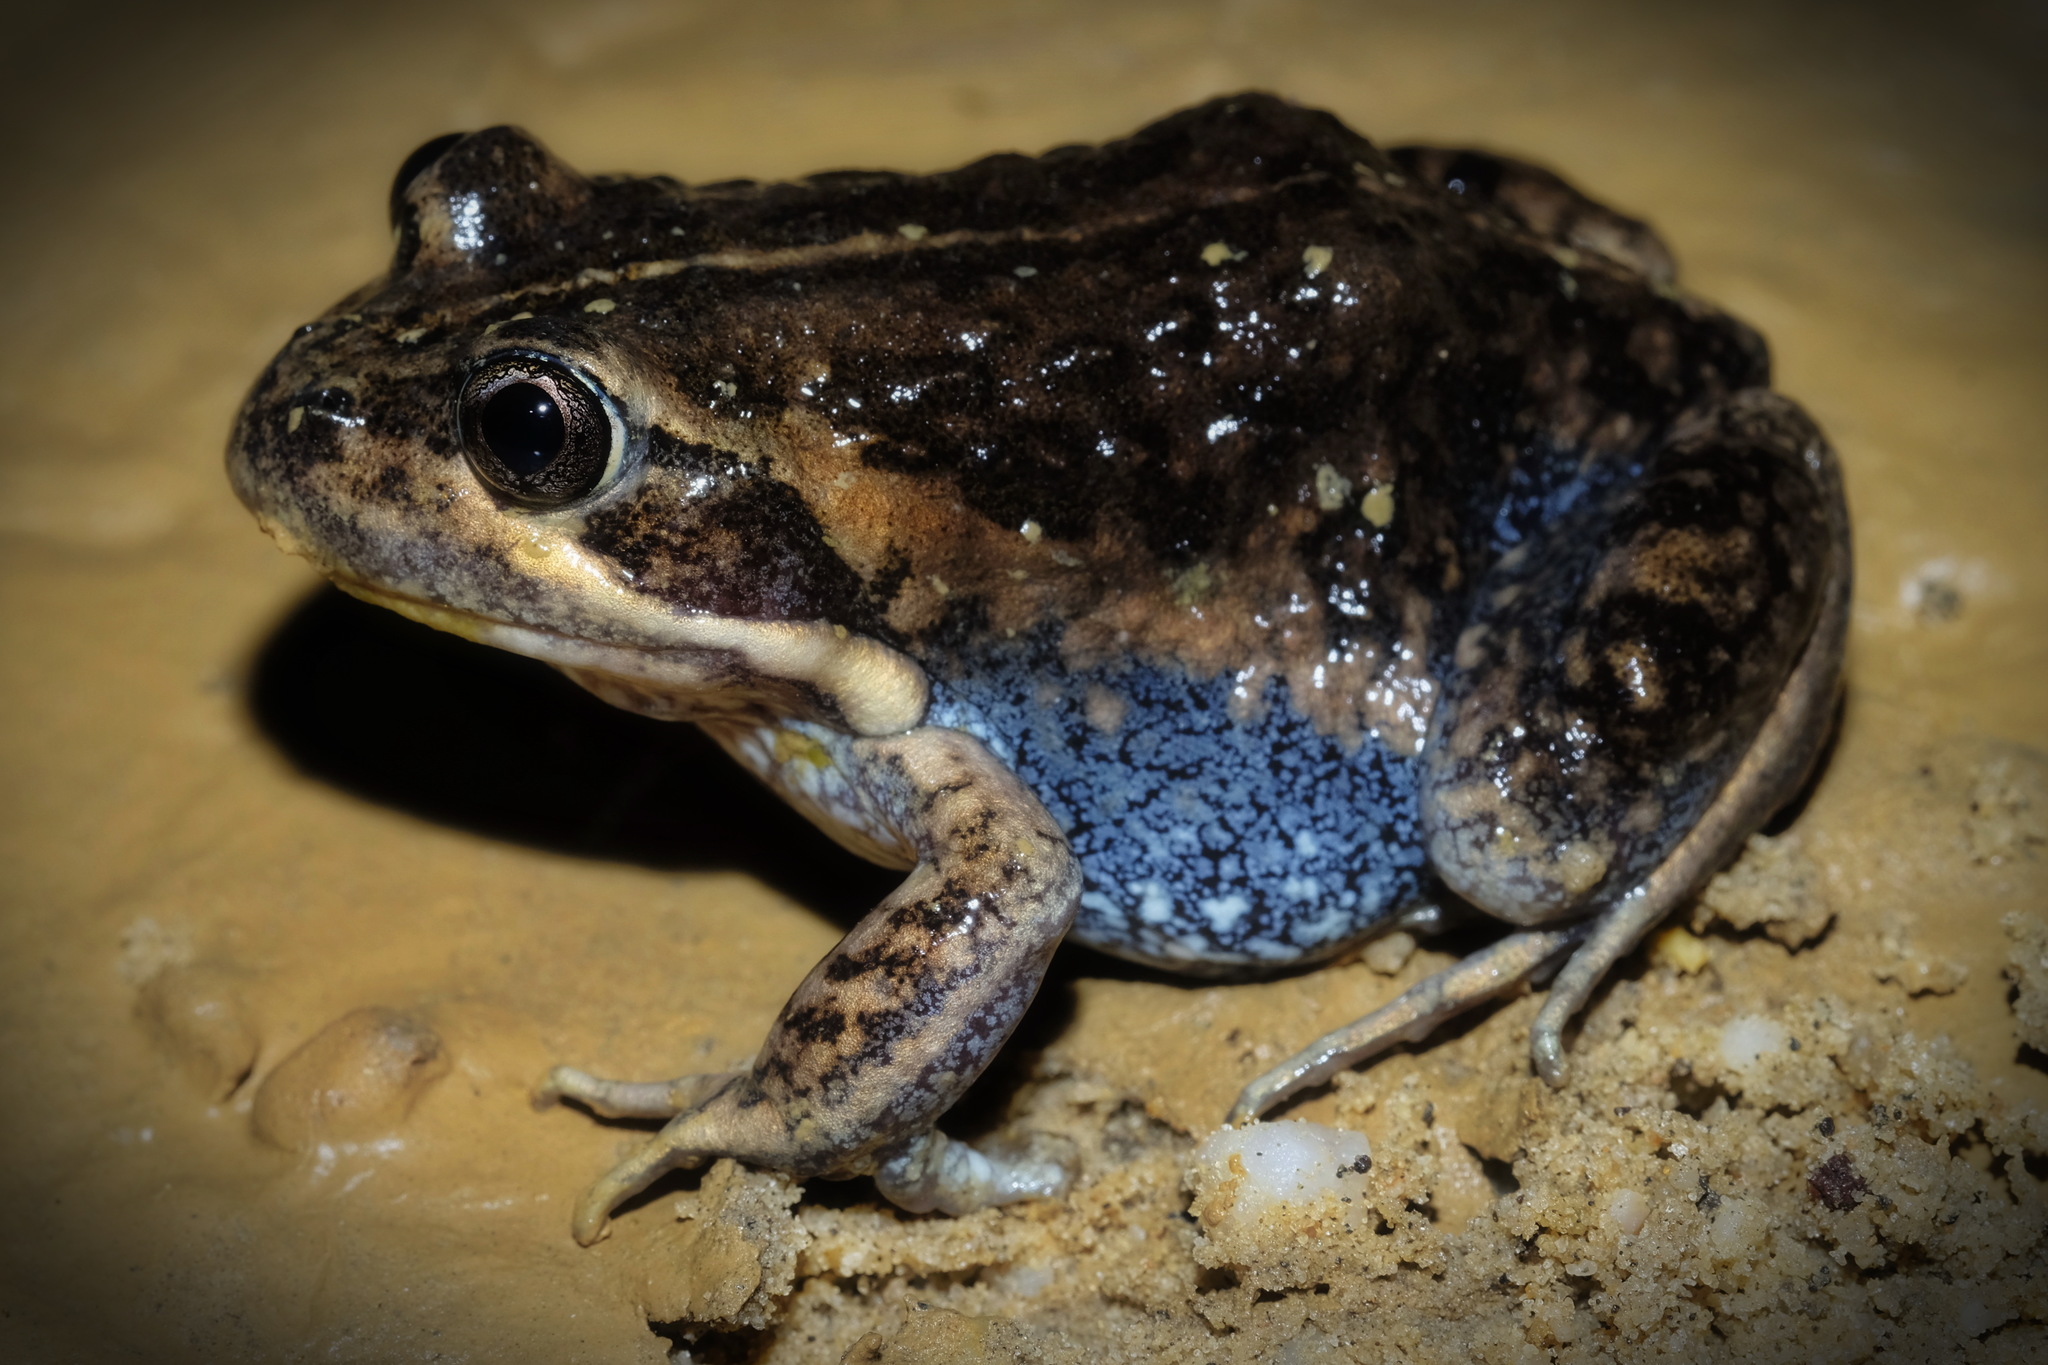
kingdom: Animalia
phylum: Chordata
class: Amphibia
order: Anura
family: Limnodynastidae
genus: Limnodynastes
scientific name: Limnodynastes dumerilii
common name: Banjo frog
